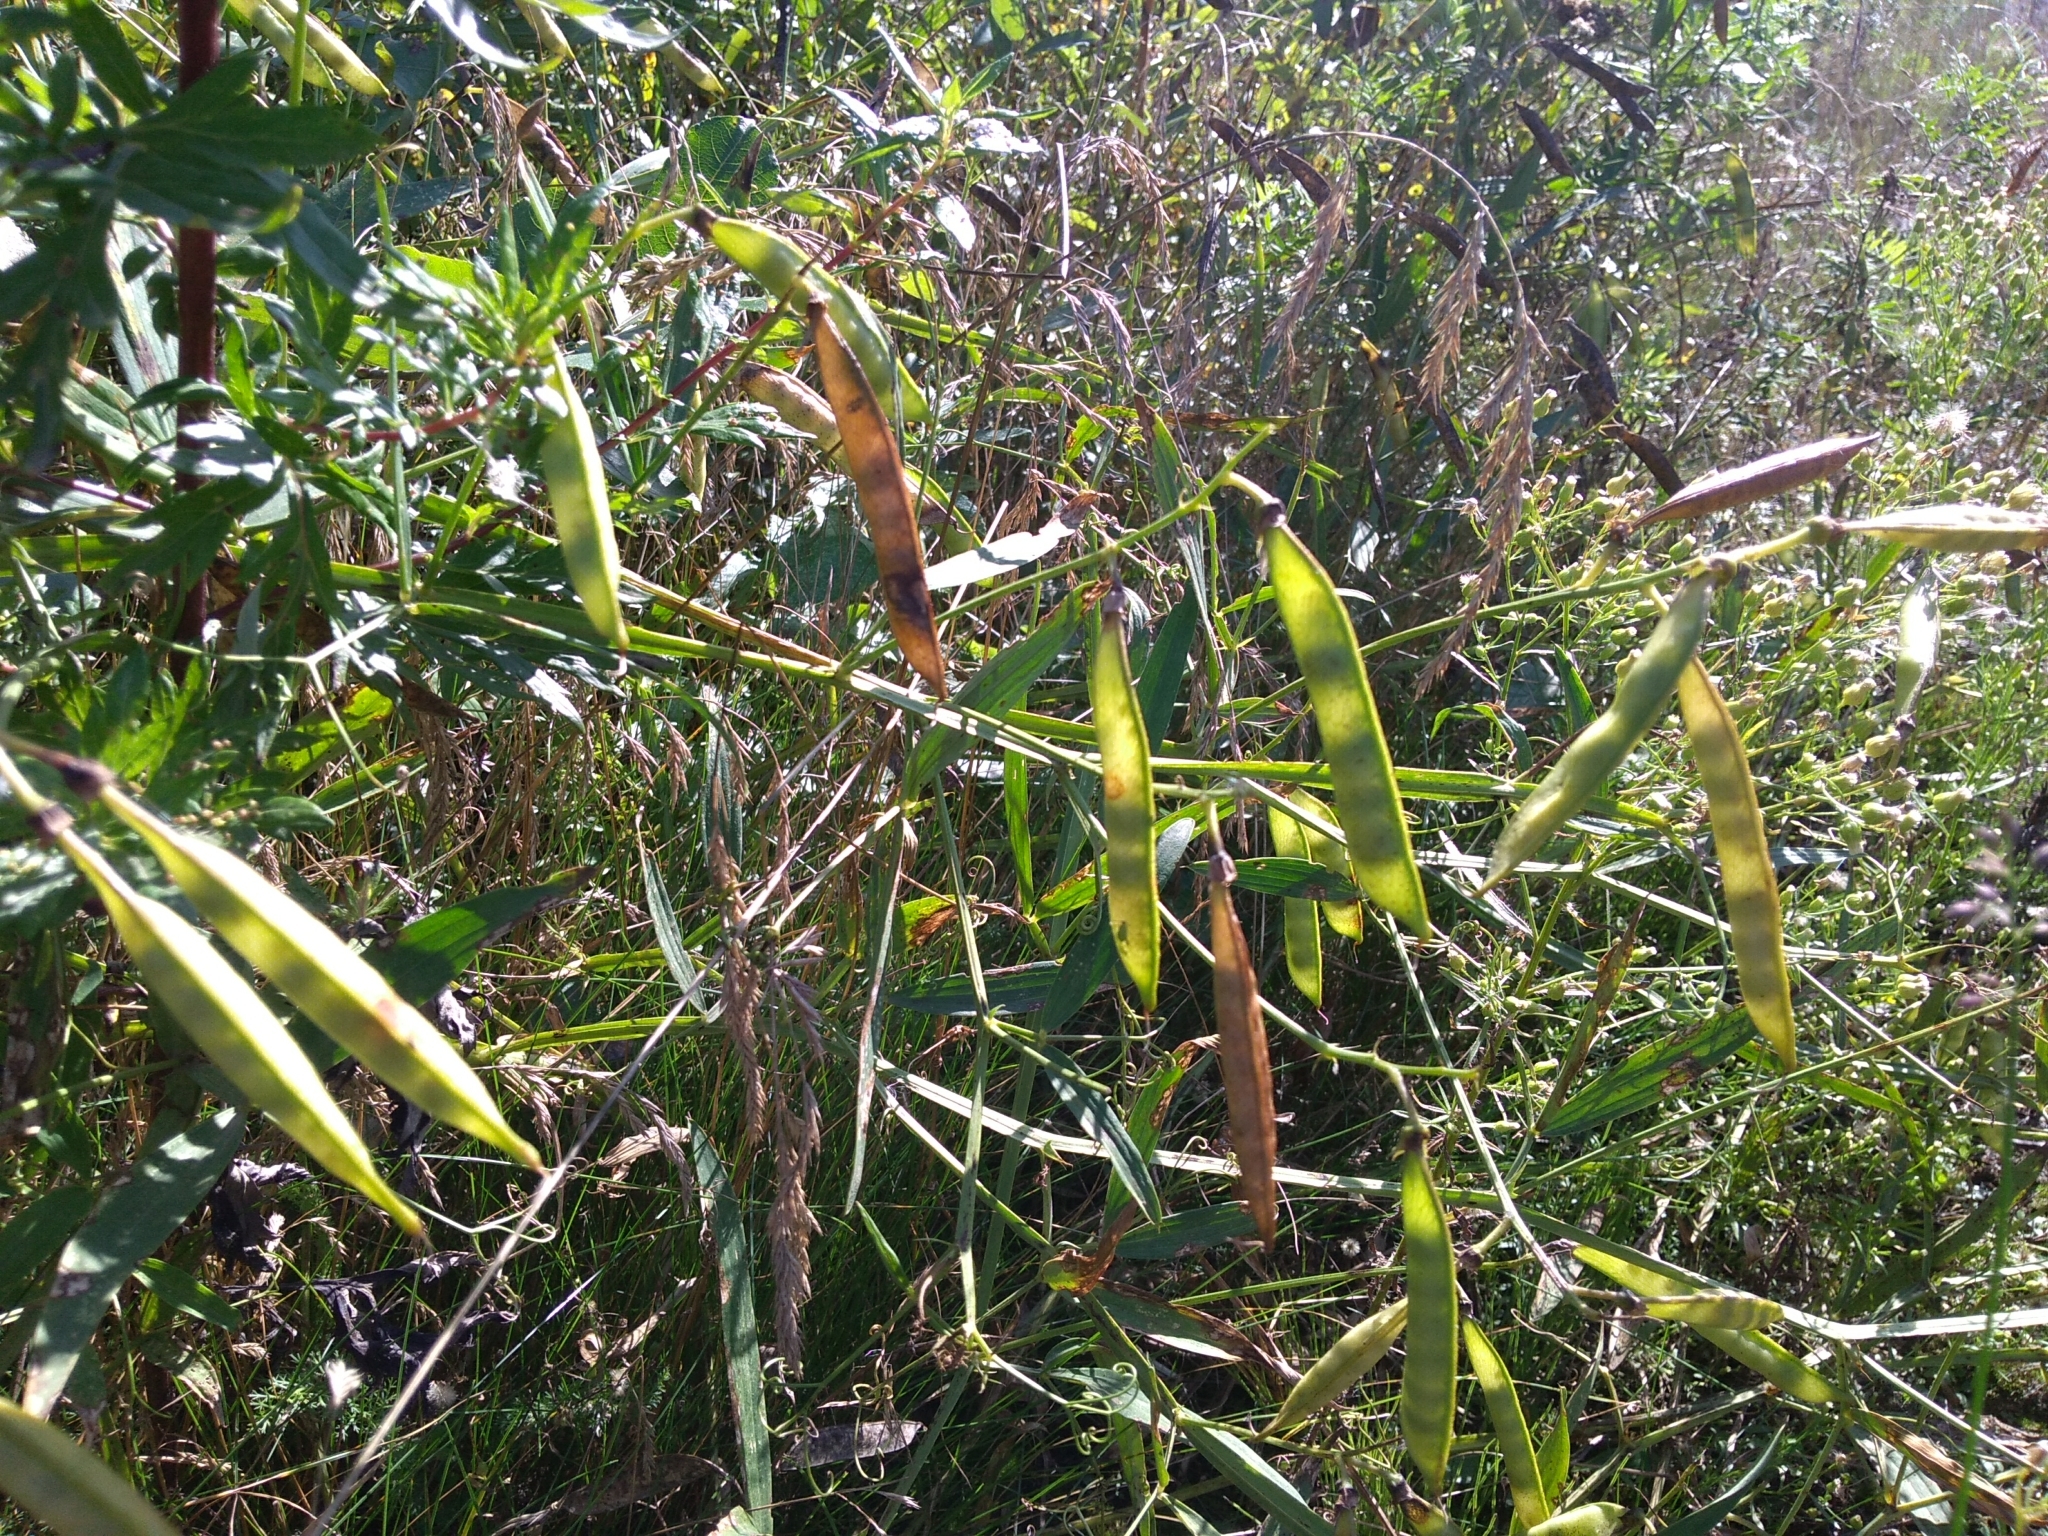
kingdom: Plantae
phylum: Tracheophyta
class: Magnoliopsida
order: Fabales
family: Fabaceae
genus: Lathyrus
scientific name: Lathyrus sylvestris
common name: Flat pea
